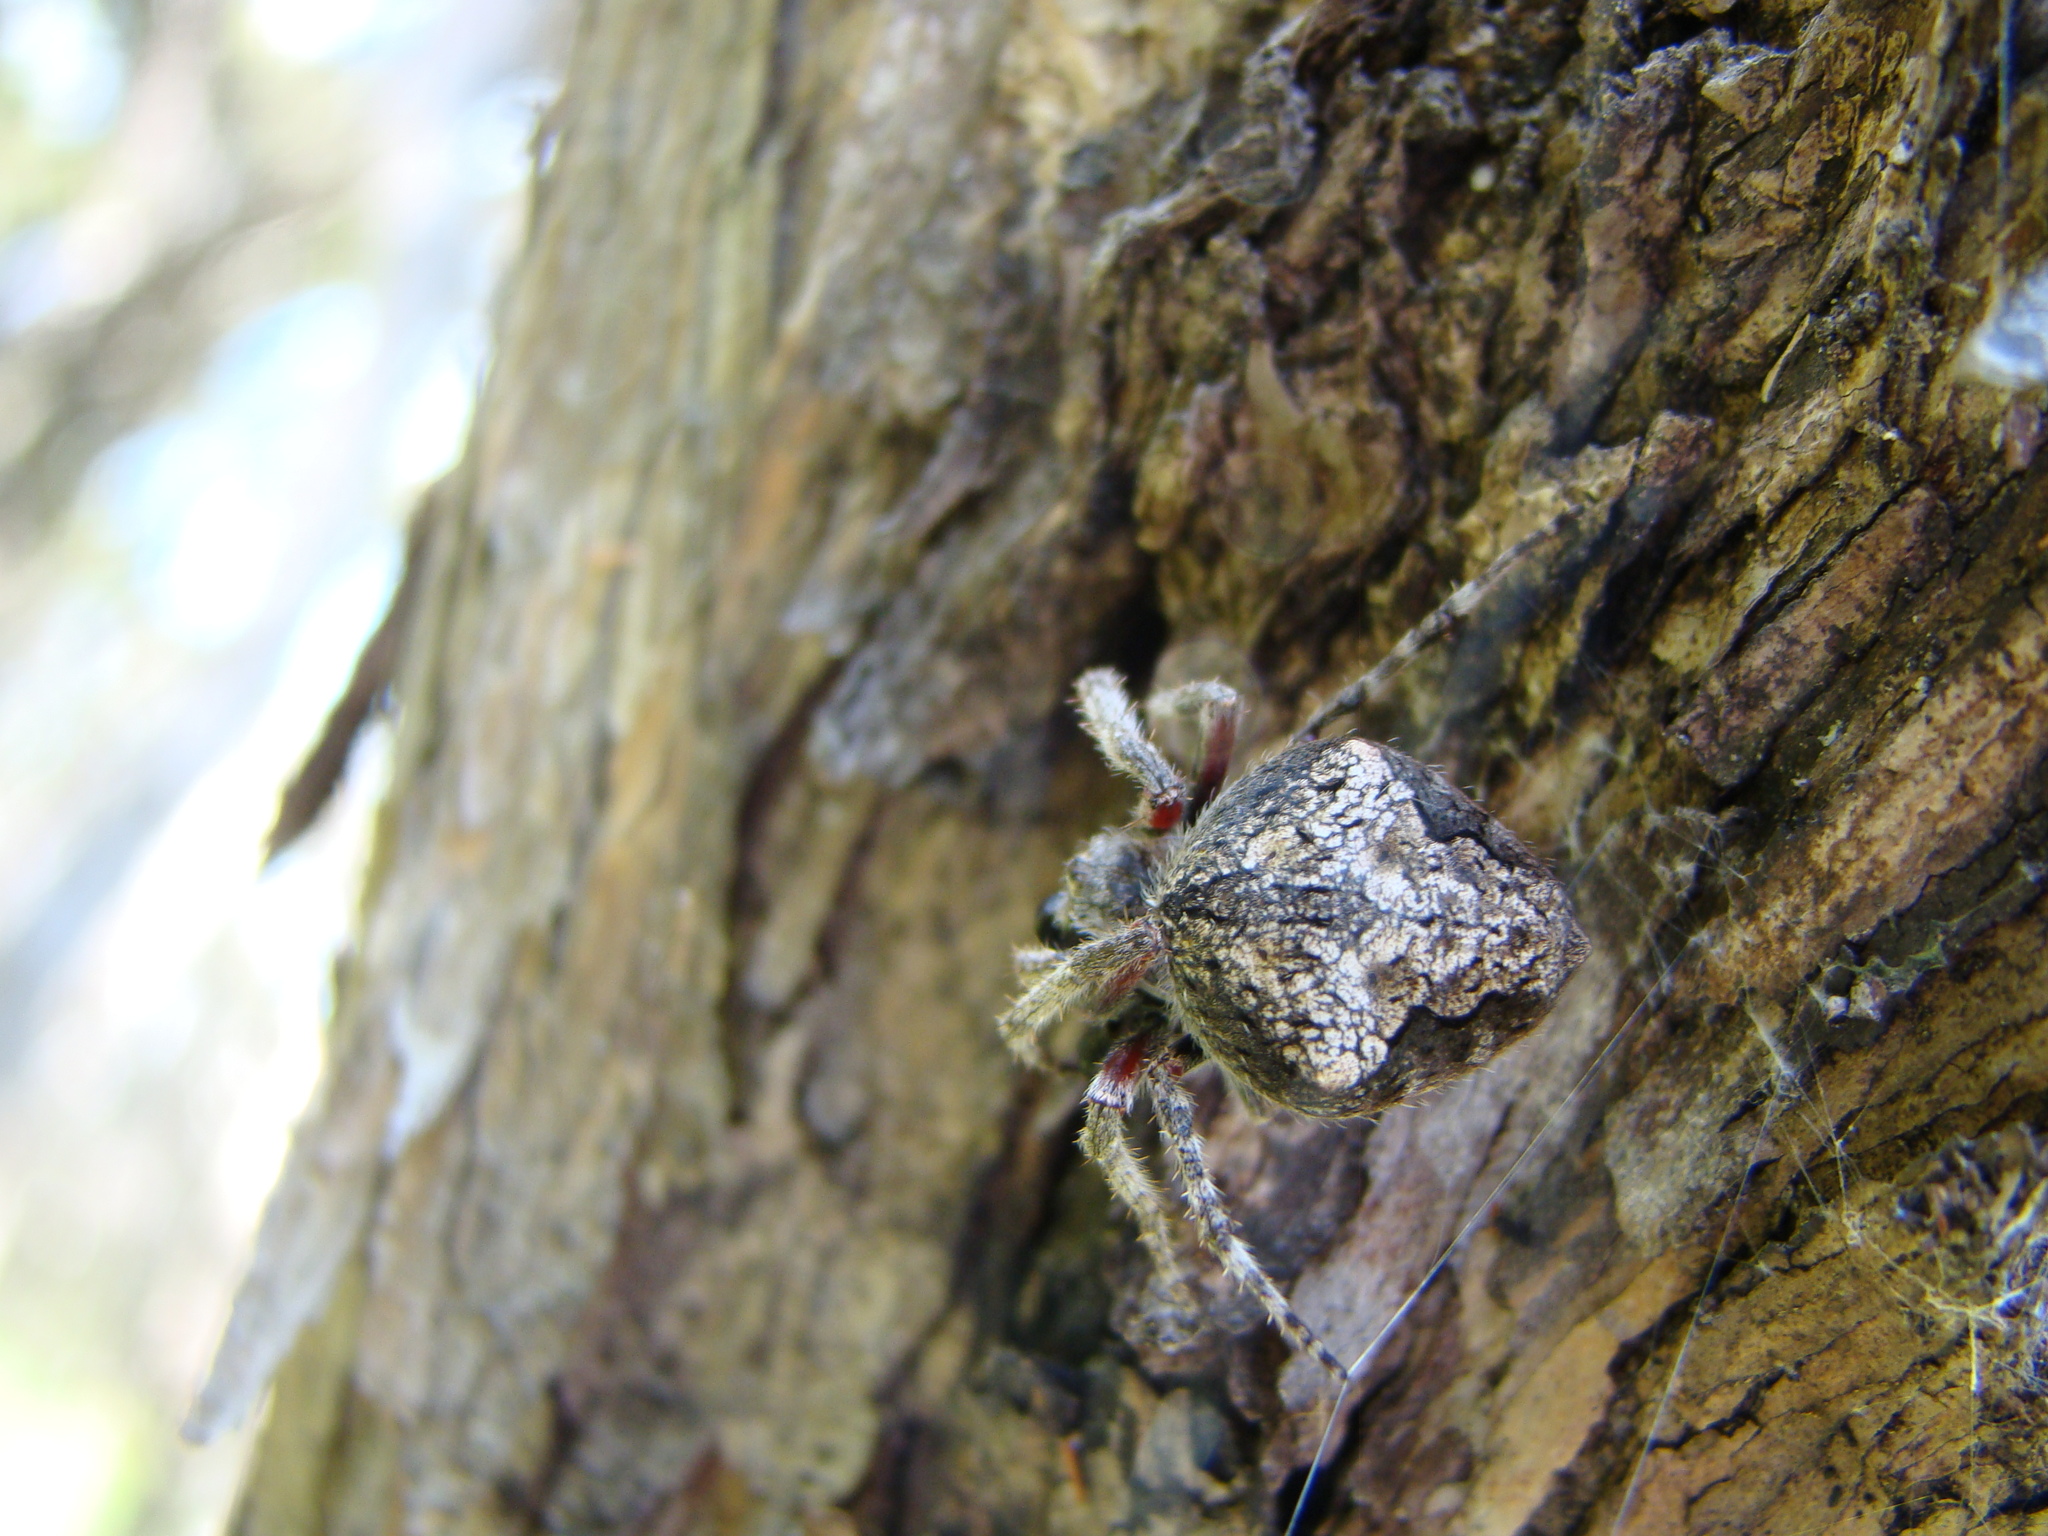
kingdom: Animalia
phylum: Arthropoda
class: Arachnida
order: Araneae
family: Araneidae
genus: Eriophora
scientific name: Eriophora pustulosa
